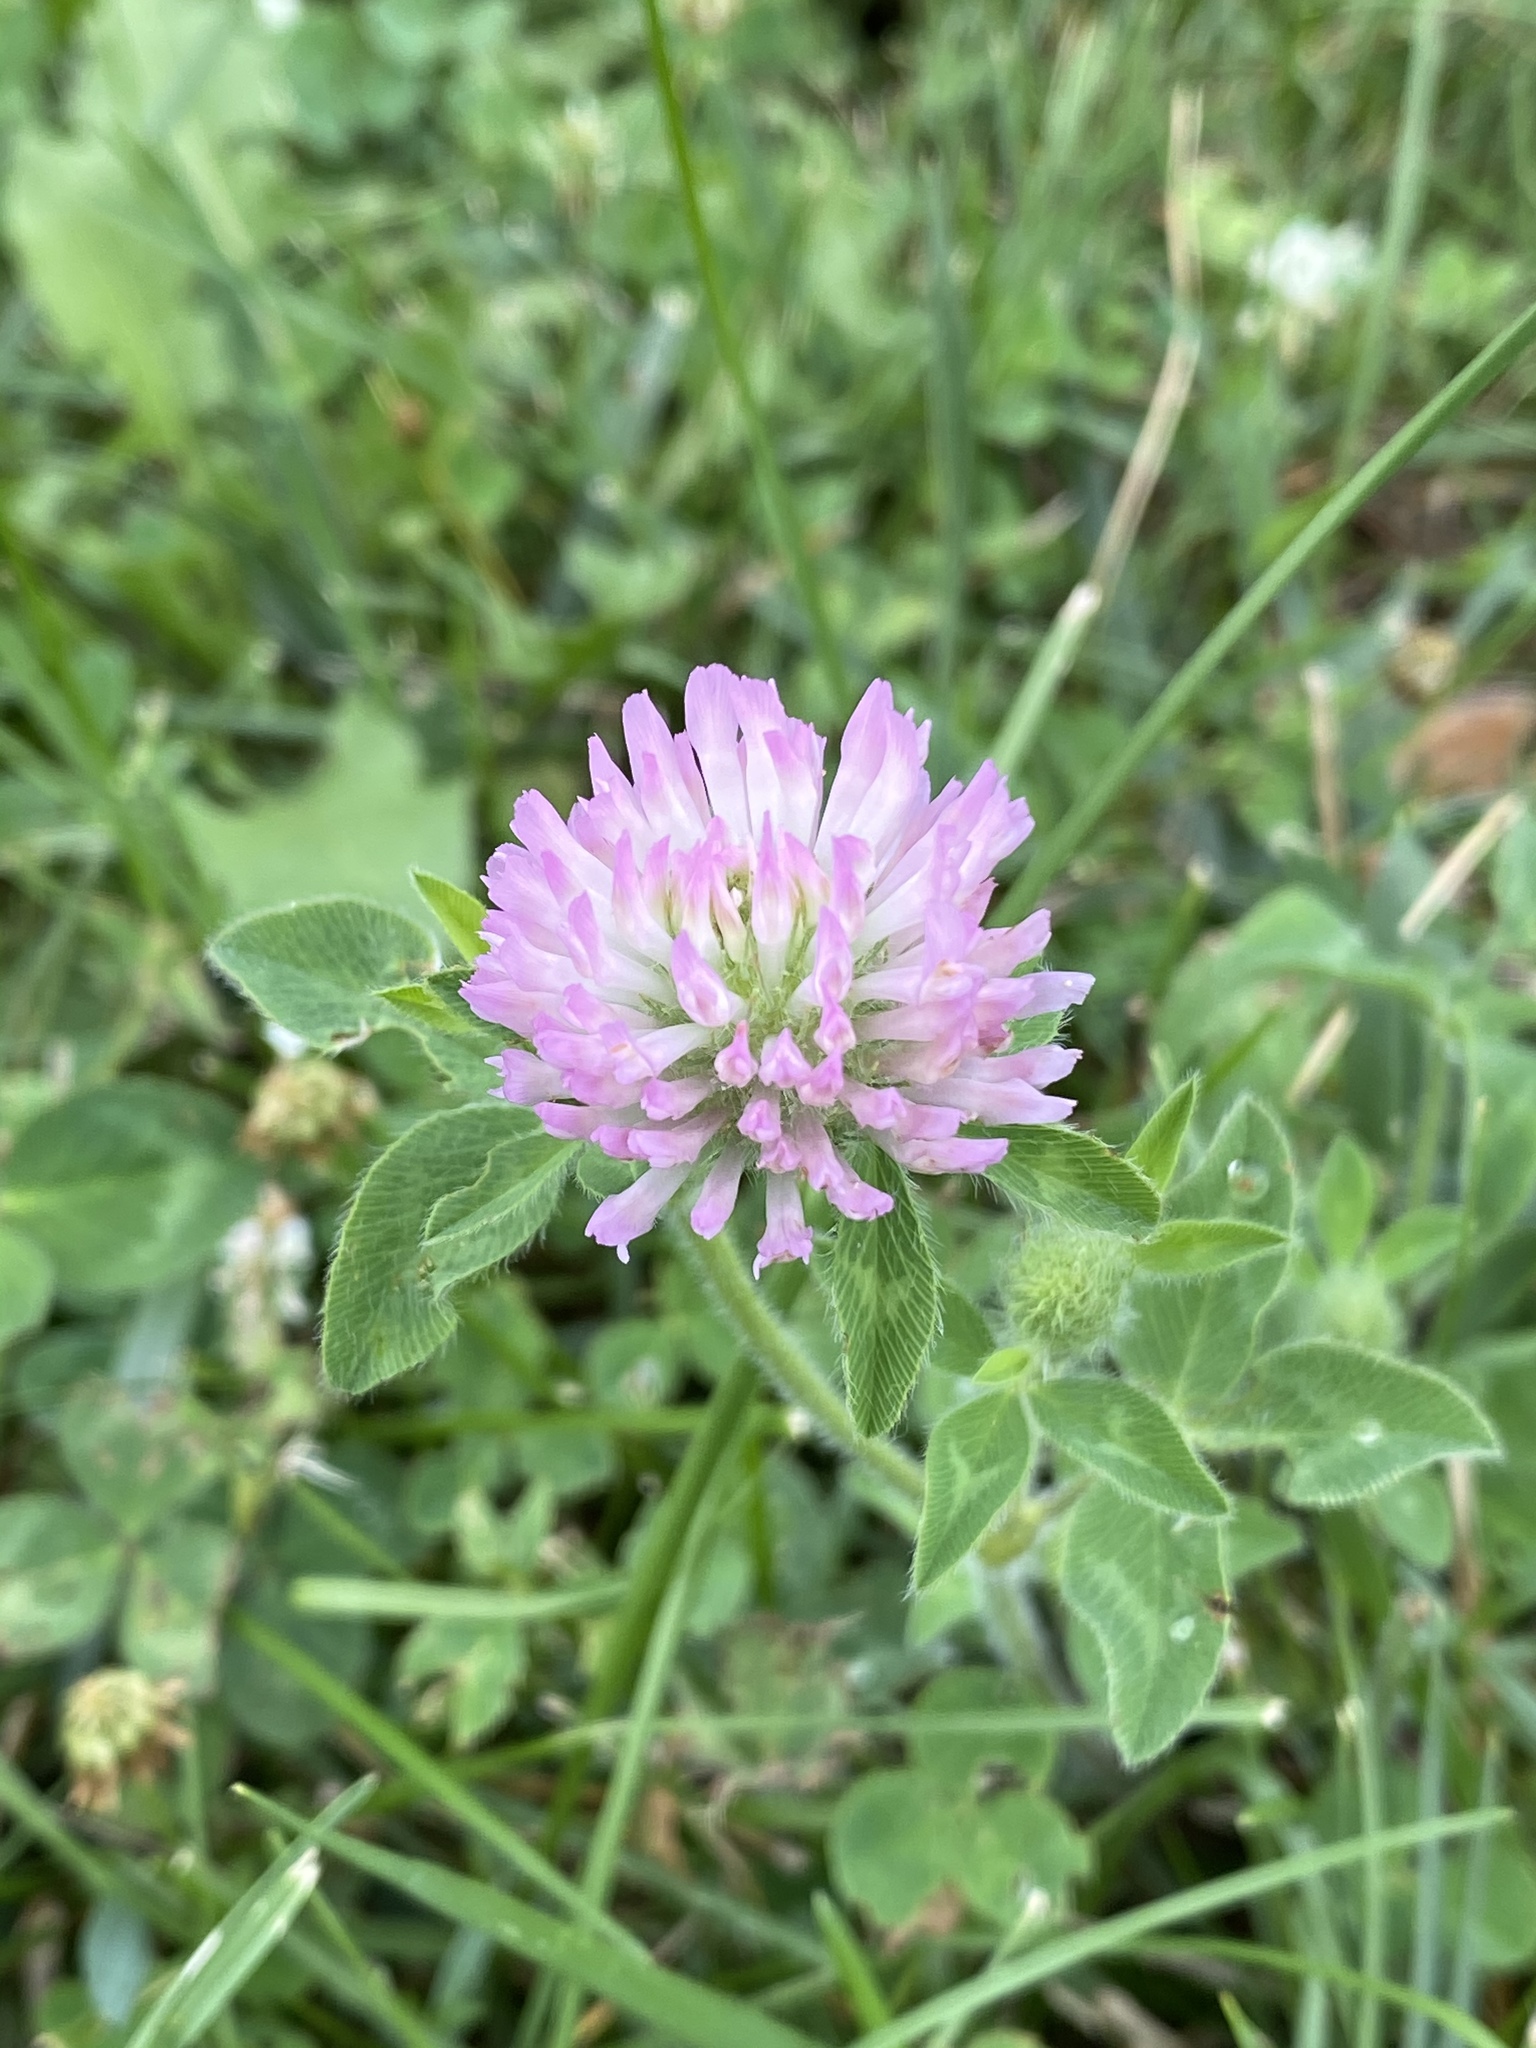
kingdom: Plantae
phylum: Tracheophyta
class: Magnoliopsida
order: Fabales
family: Fabaceae
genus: Trifolium
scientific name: Trifolium pratense
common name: Red clover
